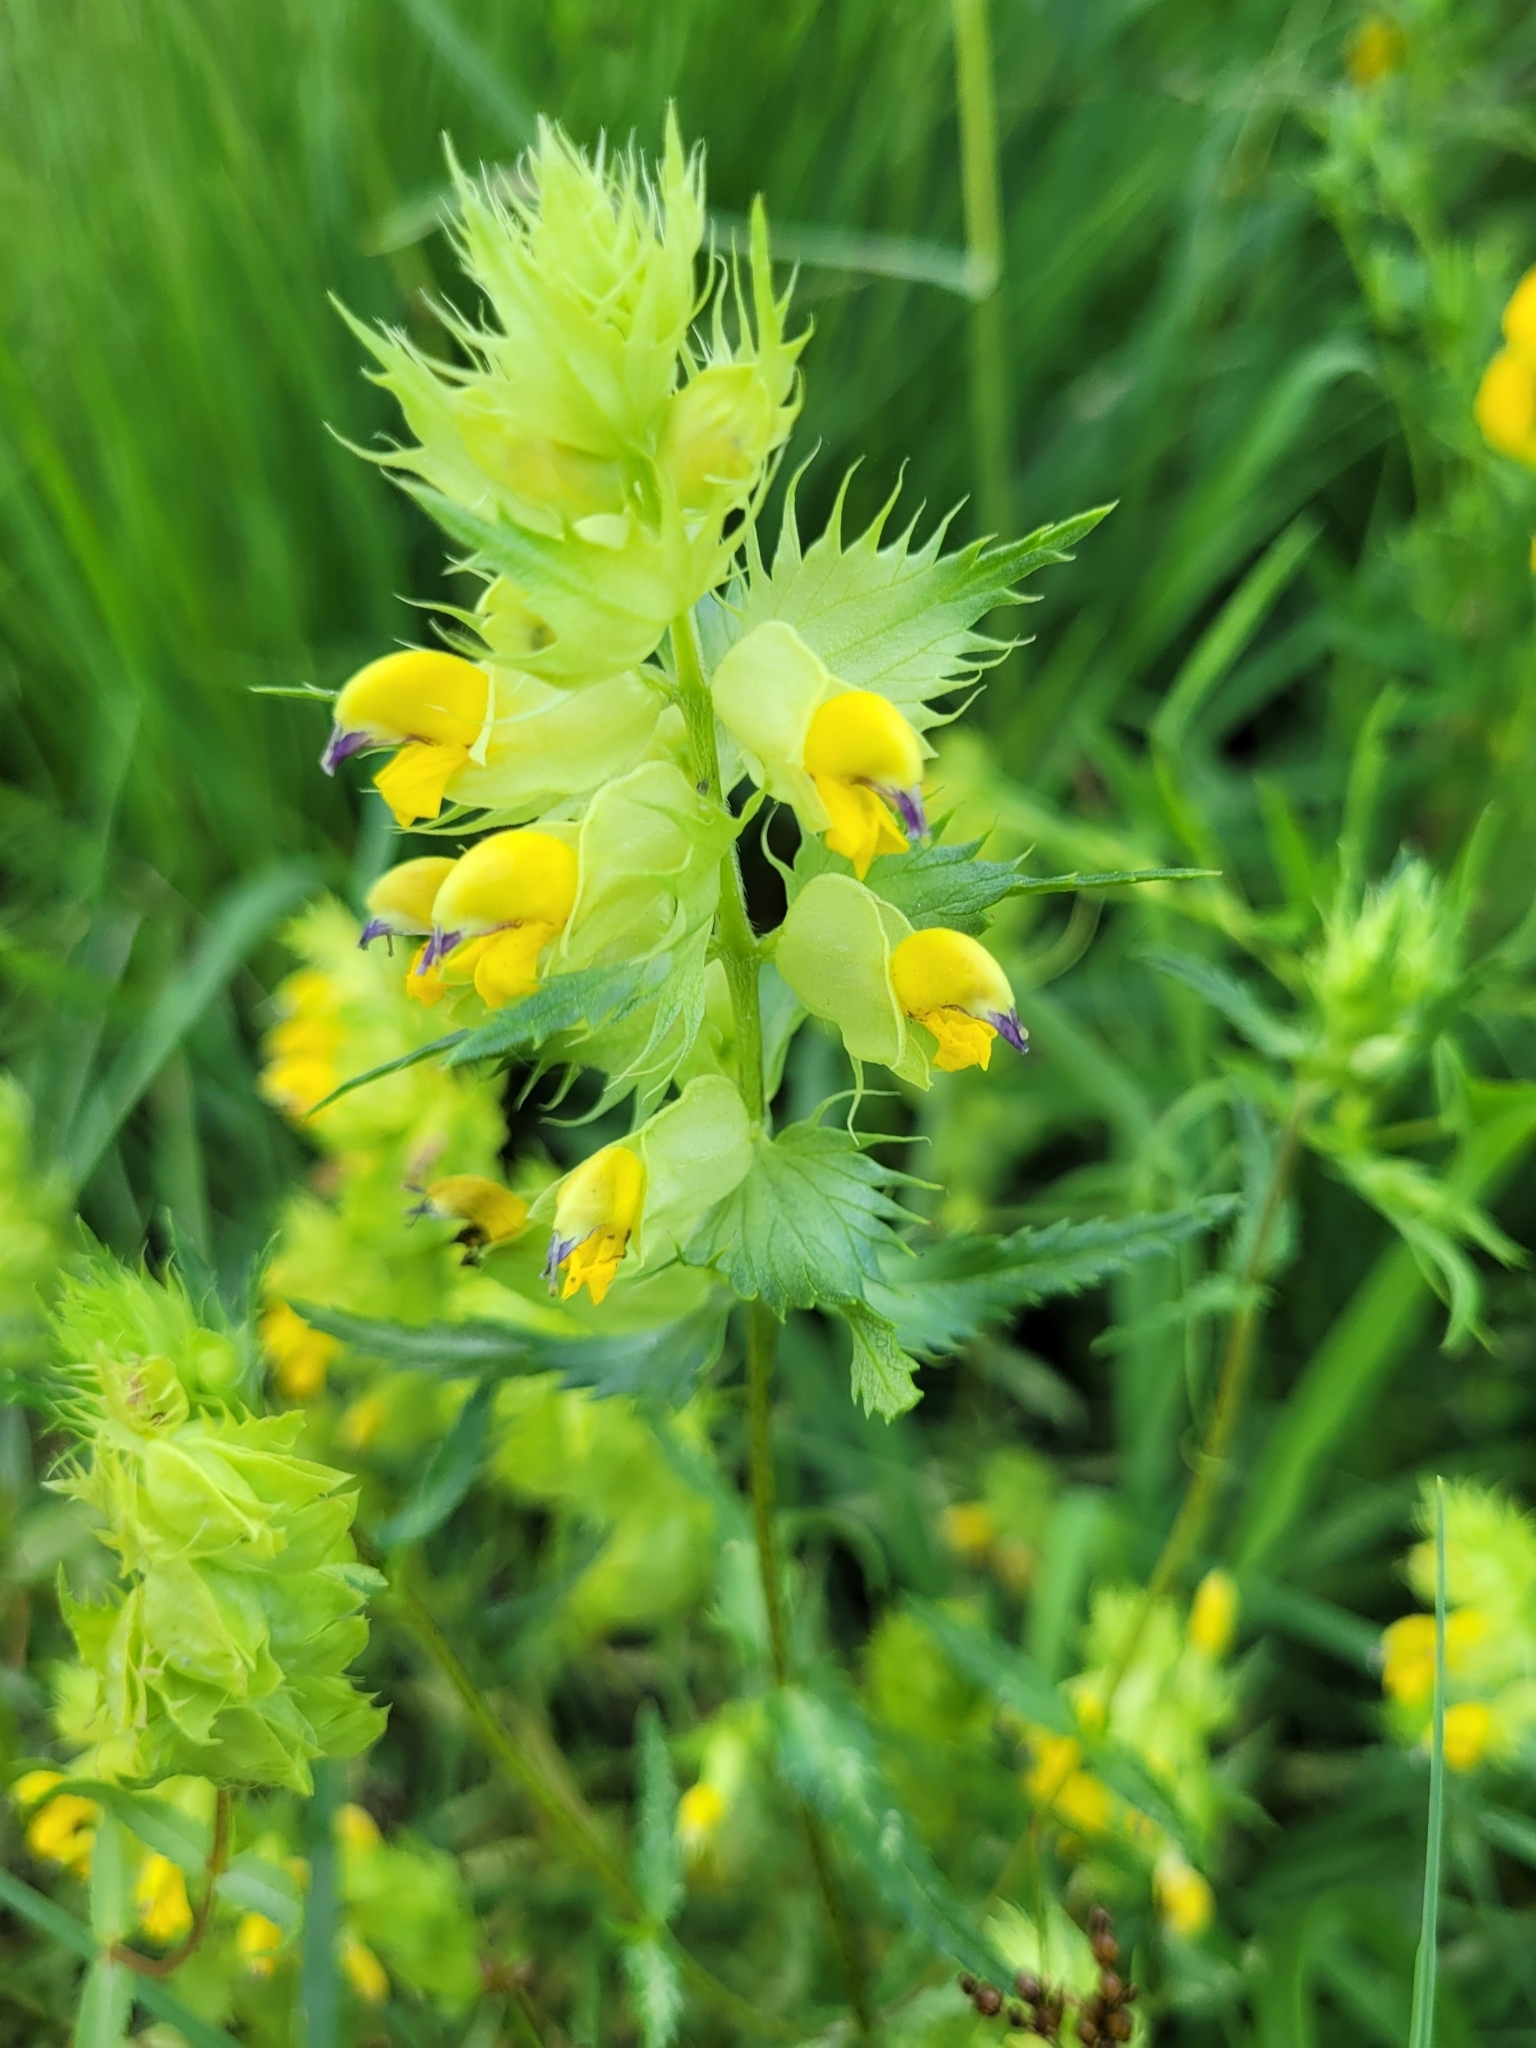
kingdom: Plantae
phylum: Tracheophyta
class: Magnoliopsida
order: Lamiales
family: Orobanchaceae
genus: Rhinanthus
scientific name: Rhinanthus glacialis
